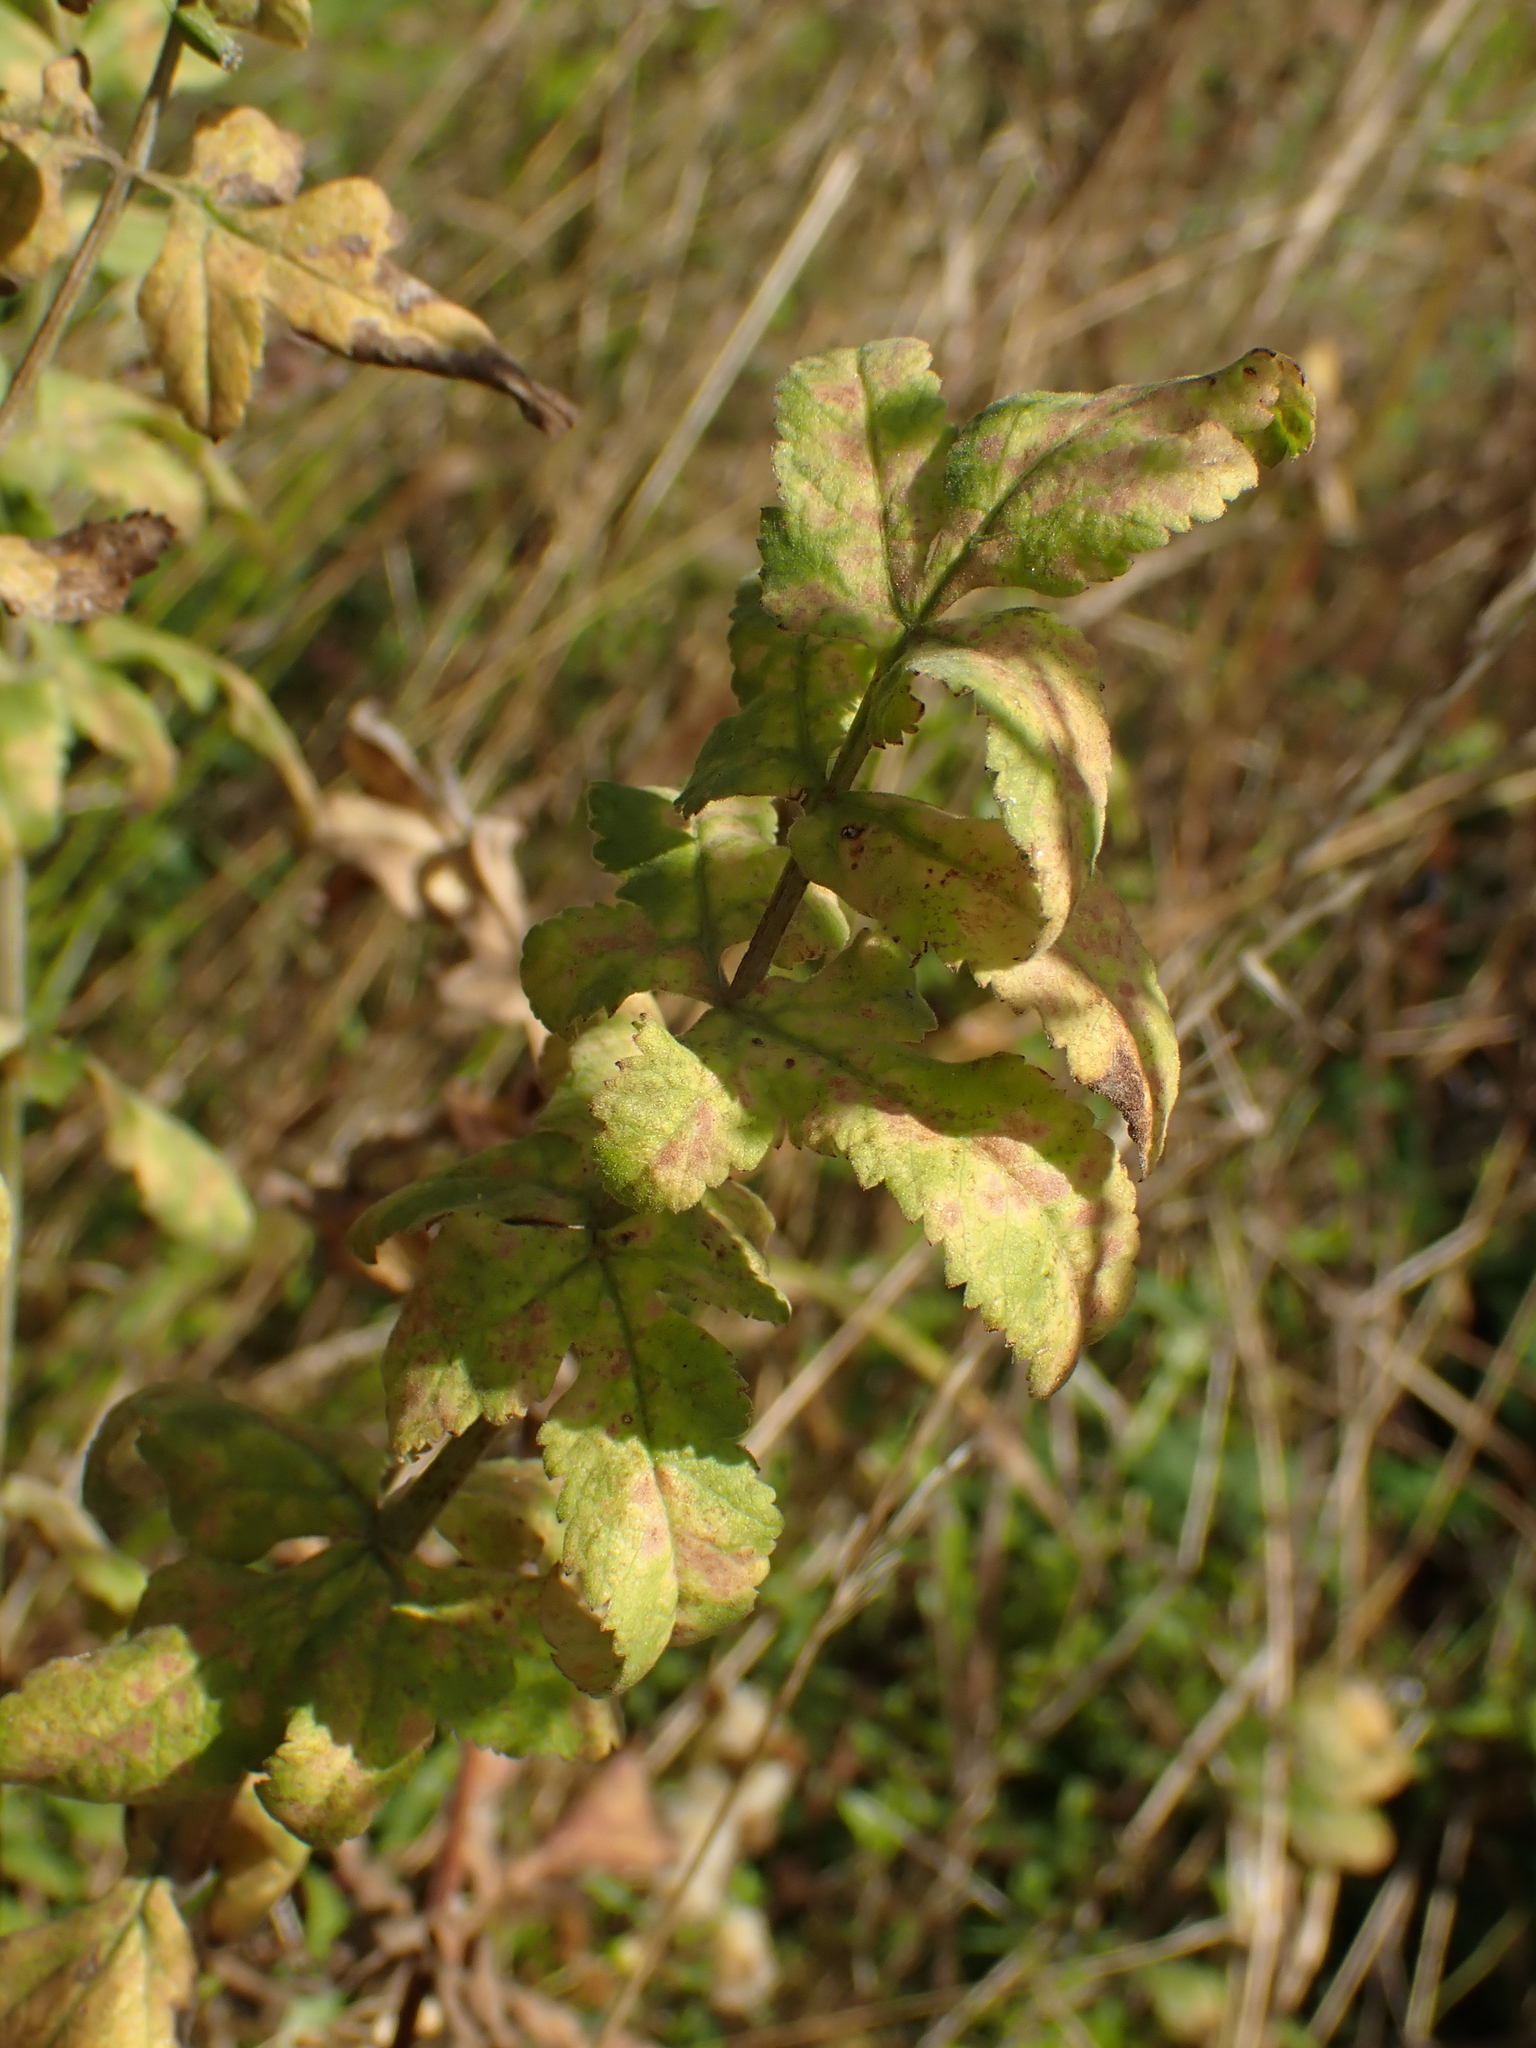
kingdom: Plantae
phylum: Tracheophyta
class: Magnoliopsida
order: Apiales
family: Apiaceae
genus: Pastinaca
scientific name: Pastinaca sativa
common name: Wild parsnip
